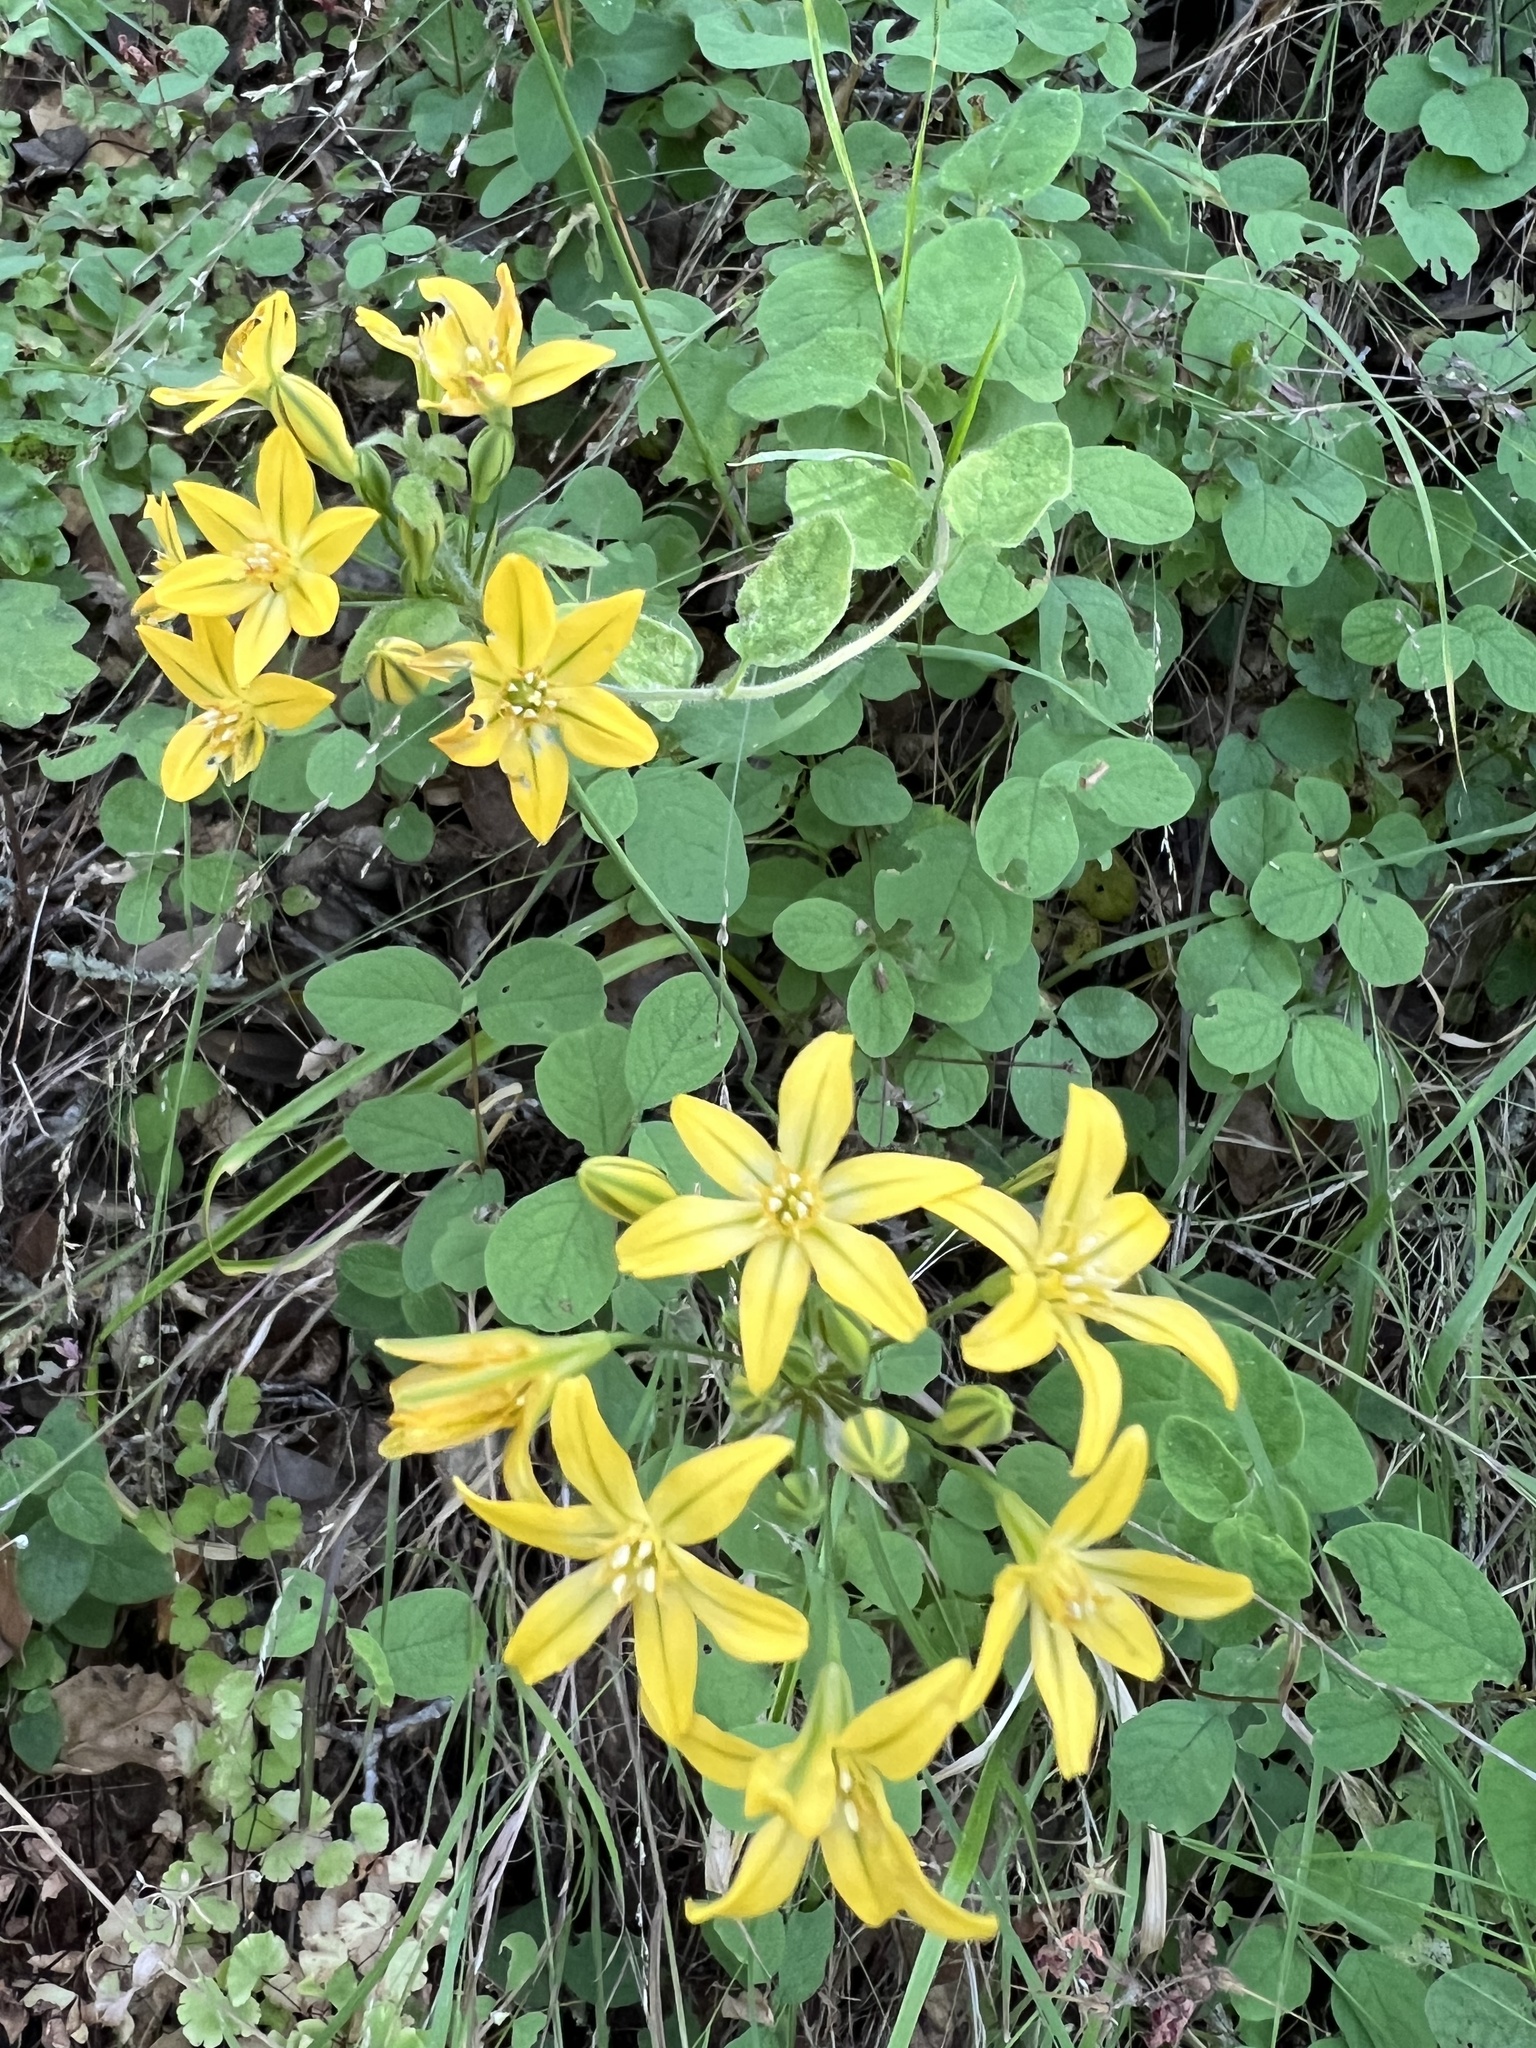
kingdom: Plantae
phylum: Tracheophyta
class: Liliopsida
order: Asparagales
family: Asparagaceae
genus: Triteleia
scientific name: Triteleia ixioides
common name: Yellow-brodiaea
